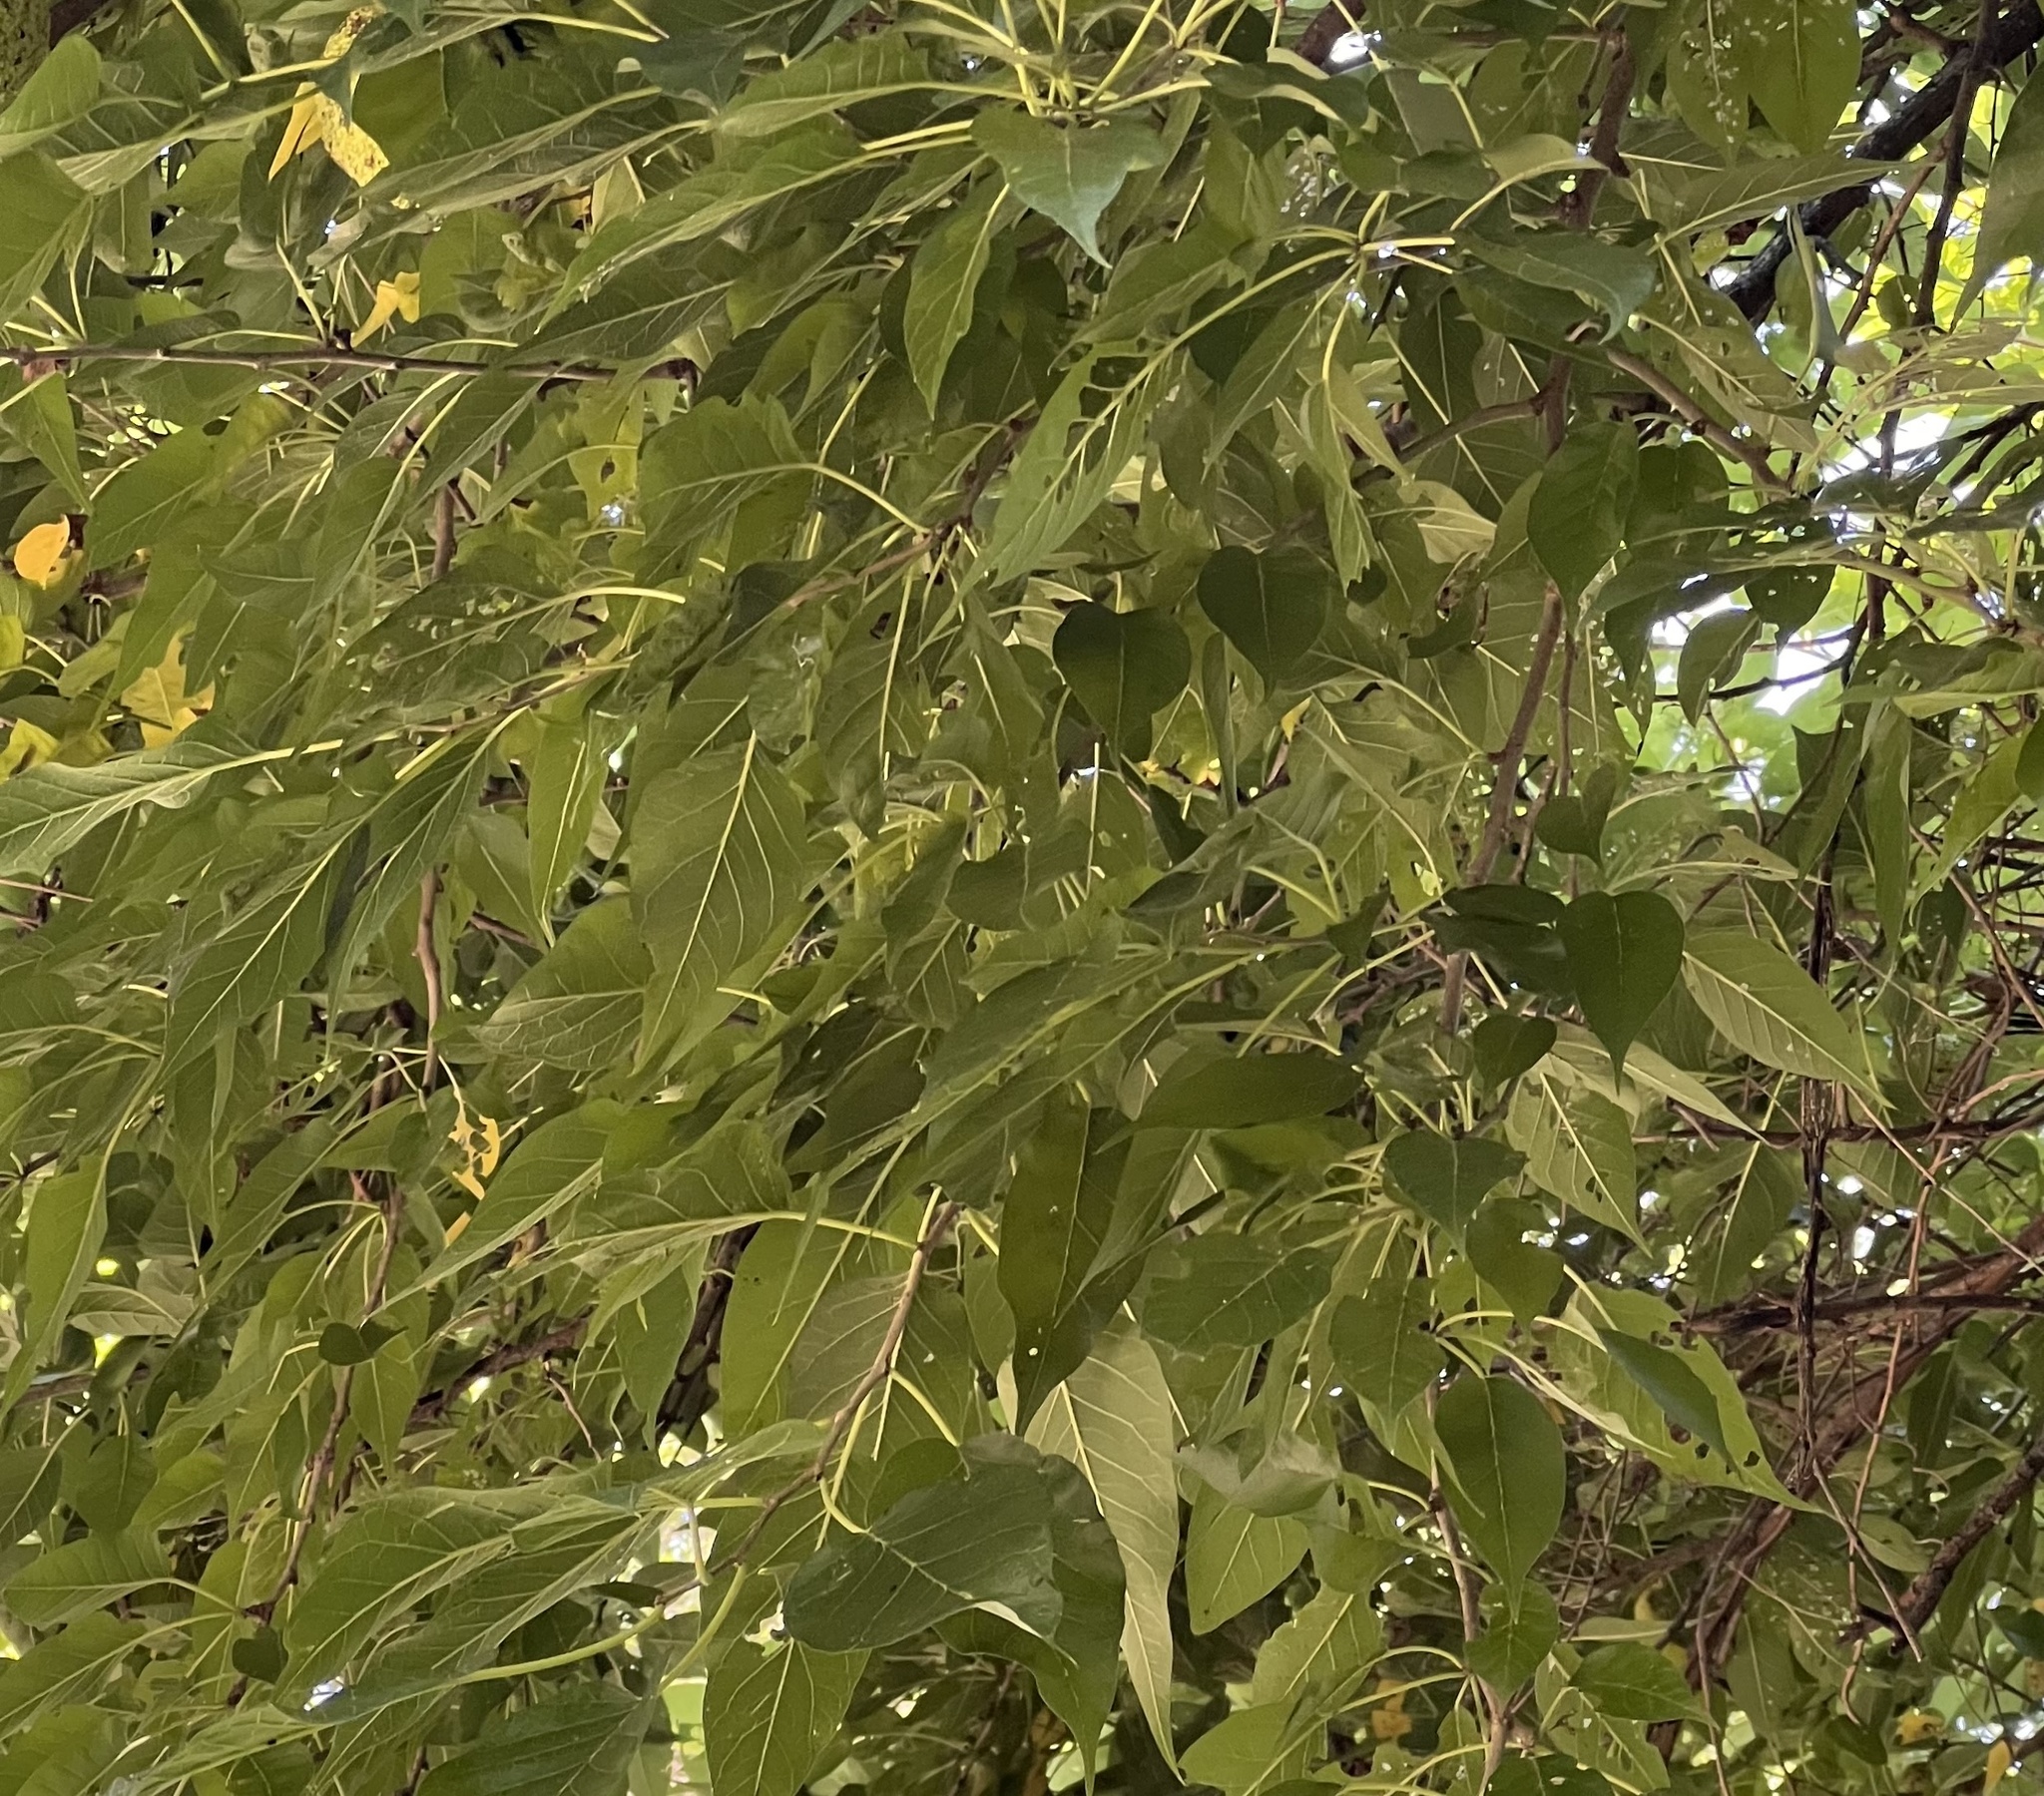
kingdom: Plantae
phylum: Tracheophyta
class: Magnoliopsida
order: Rosales
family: Moraceae
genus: Maclura
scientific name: Maclura pomifera
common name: Osage-orange
